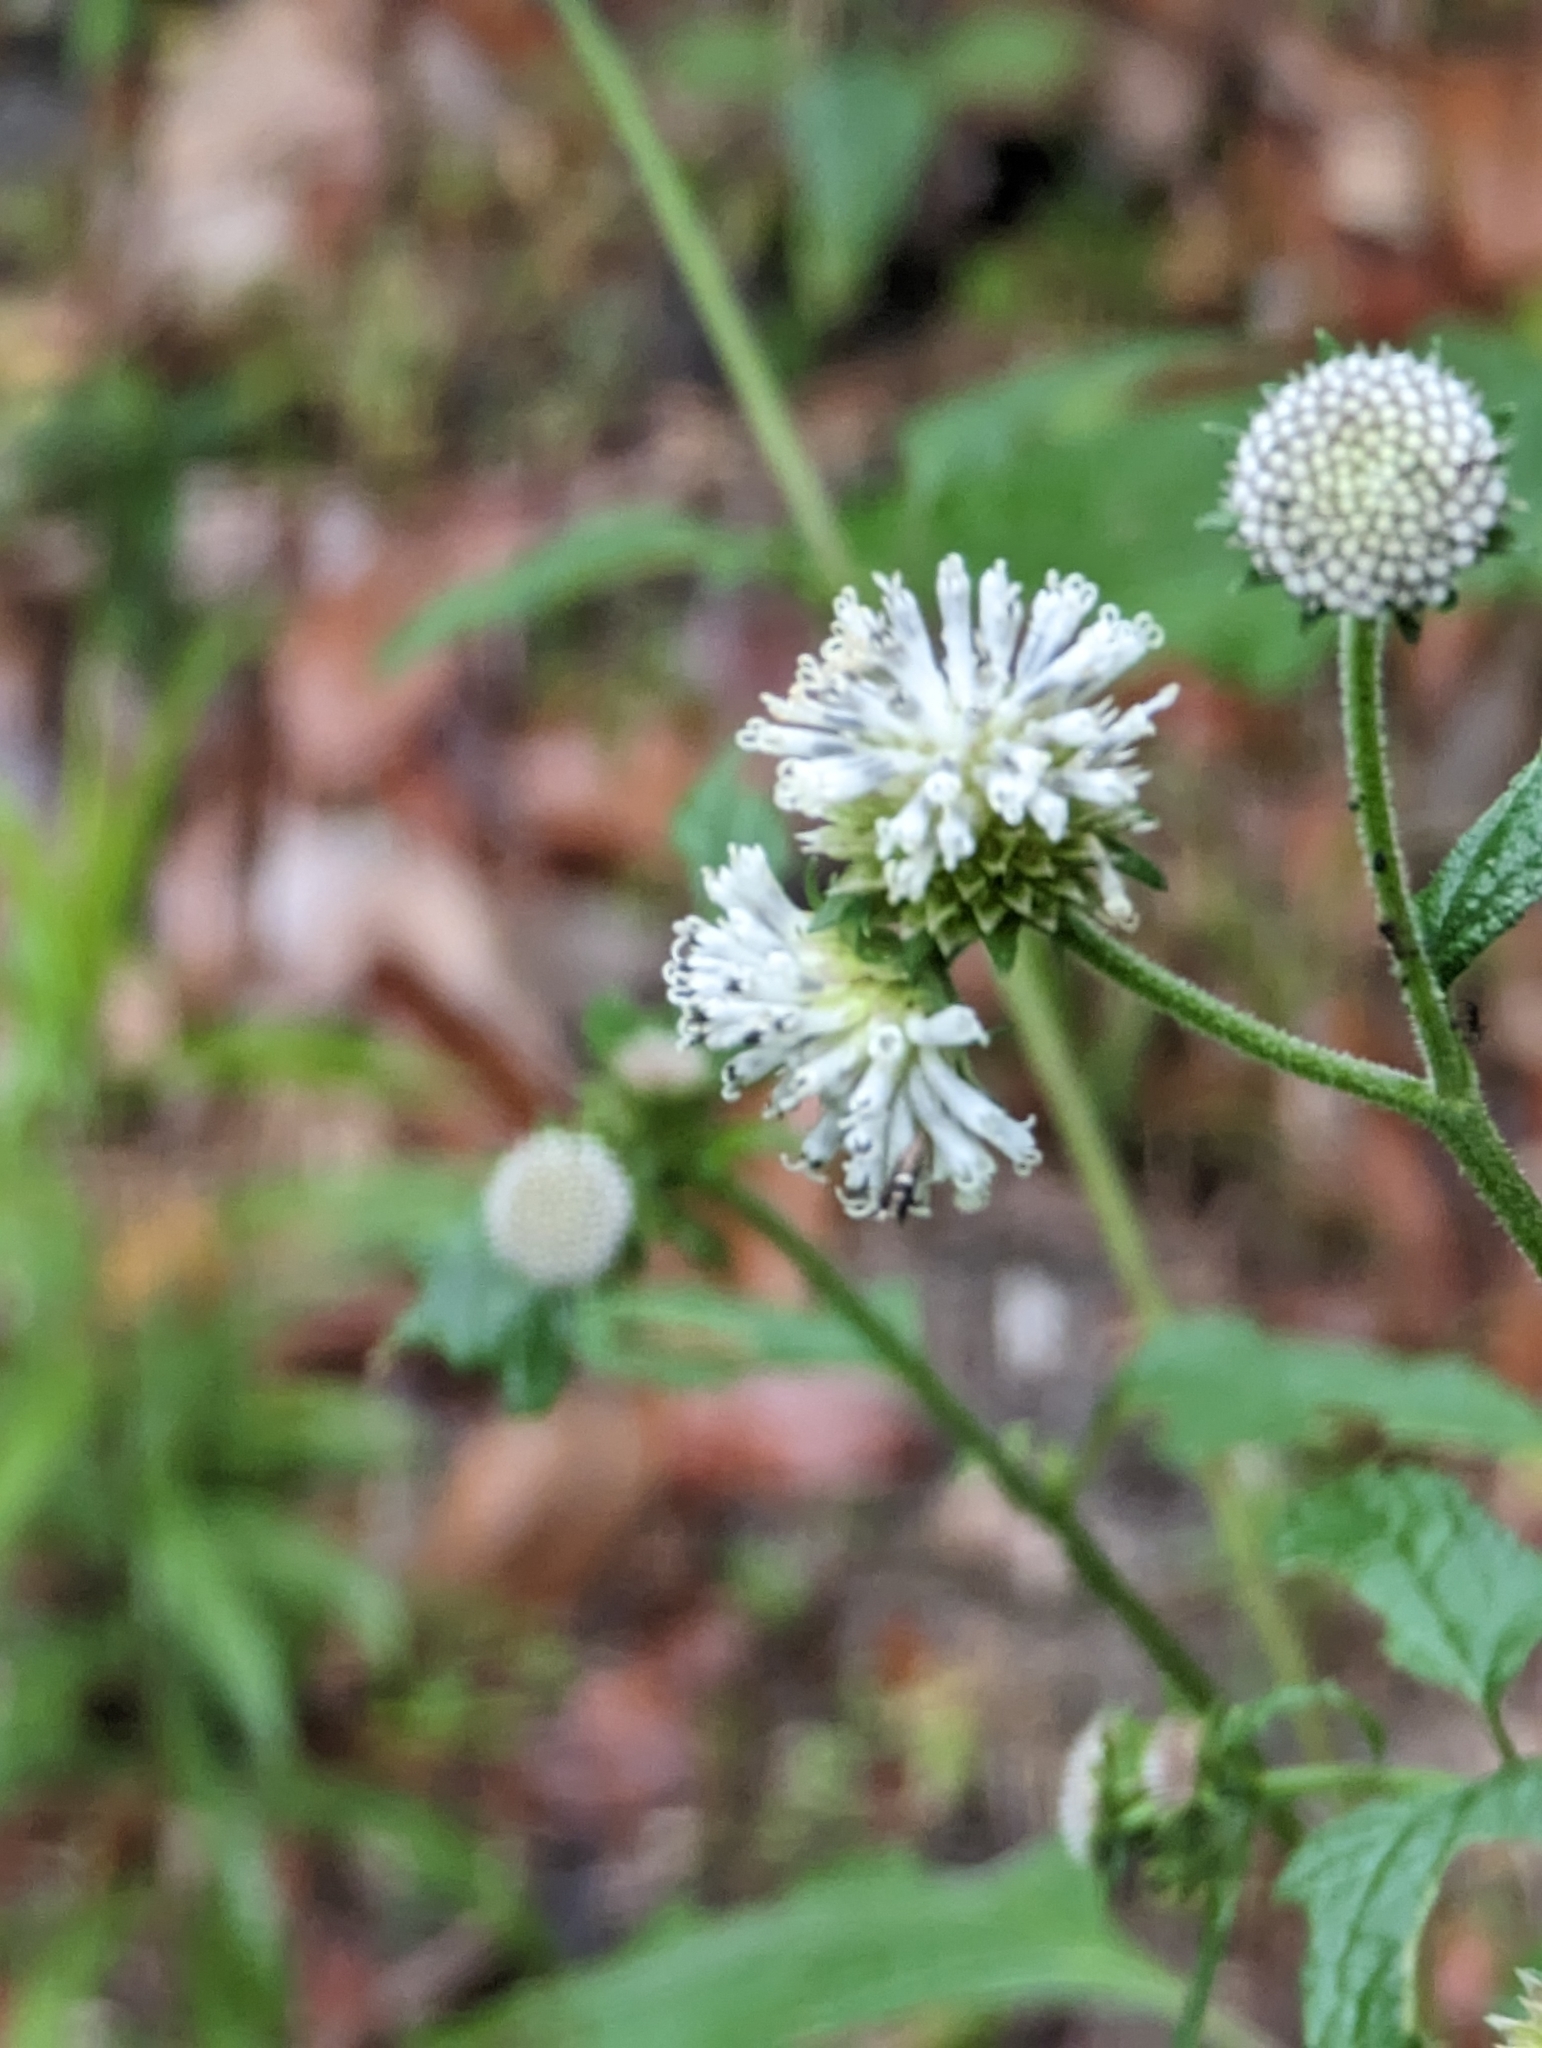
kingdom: Plantae
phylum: Tracheophyta
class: Magnoliopsida
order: Asterales
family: Asteraceae
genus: Melanthera
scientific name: Melanthera nivea
